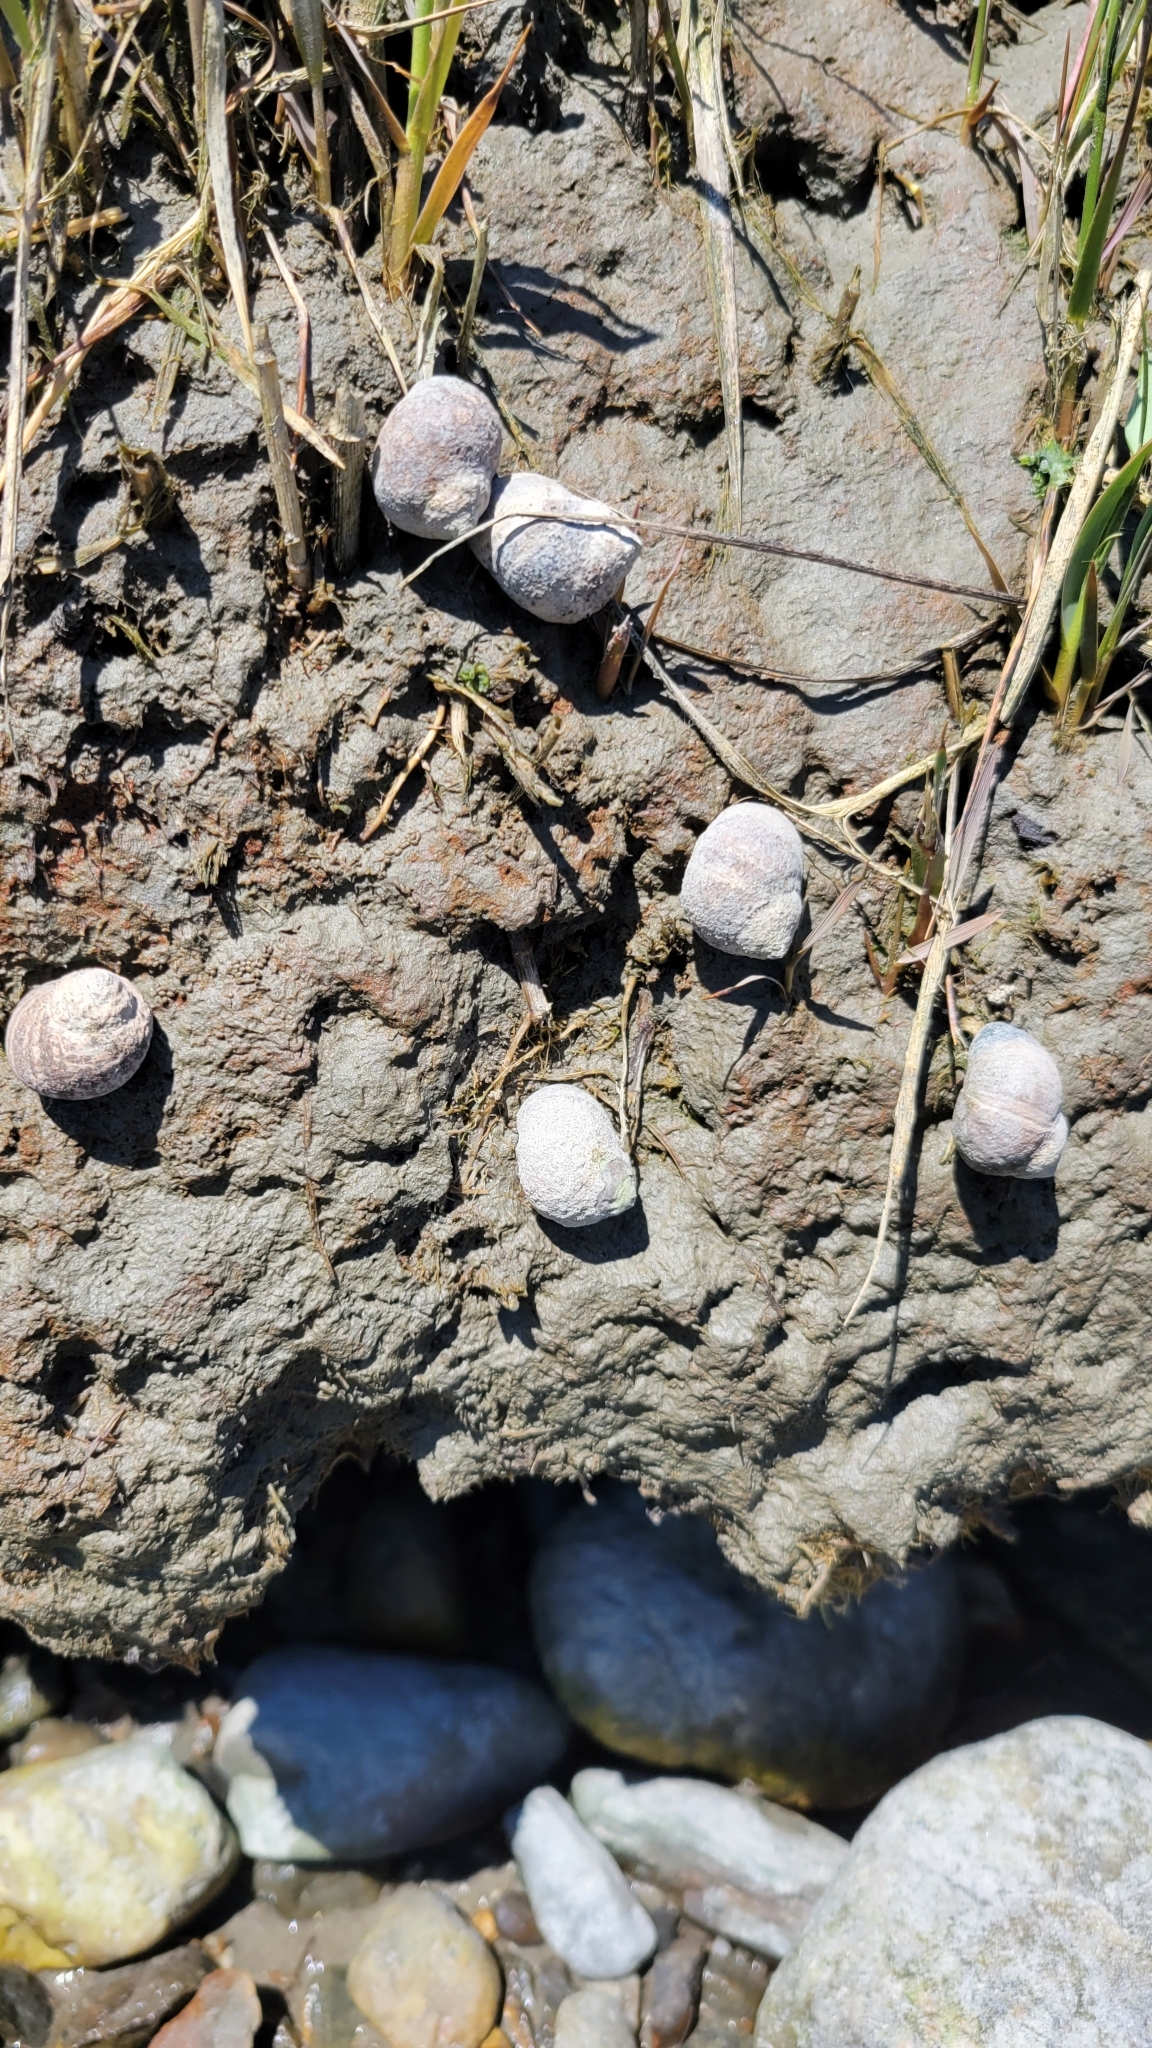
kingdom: Animalia
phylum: Mollusca
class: Gastropoda
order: Littorinimorpha
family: Littorinidae
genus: Littorina
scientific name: Littorina littorea
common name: Common periwinkle
